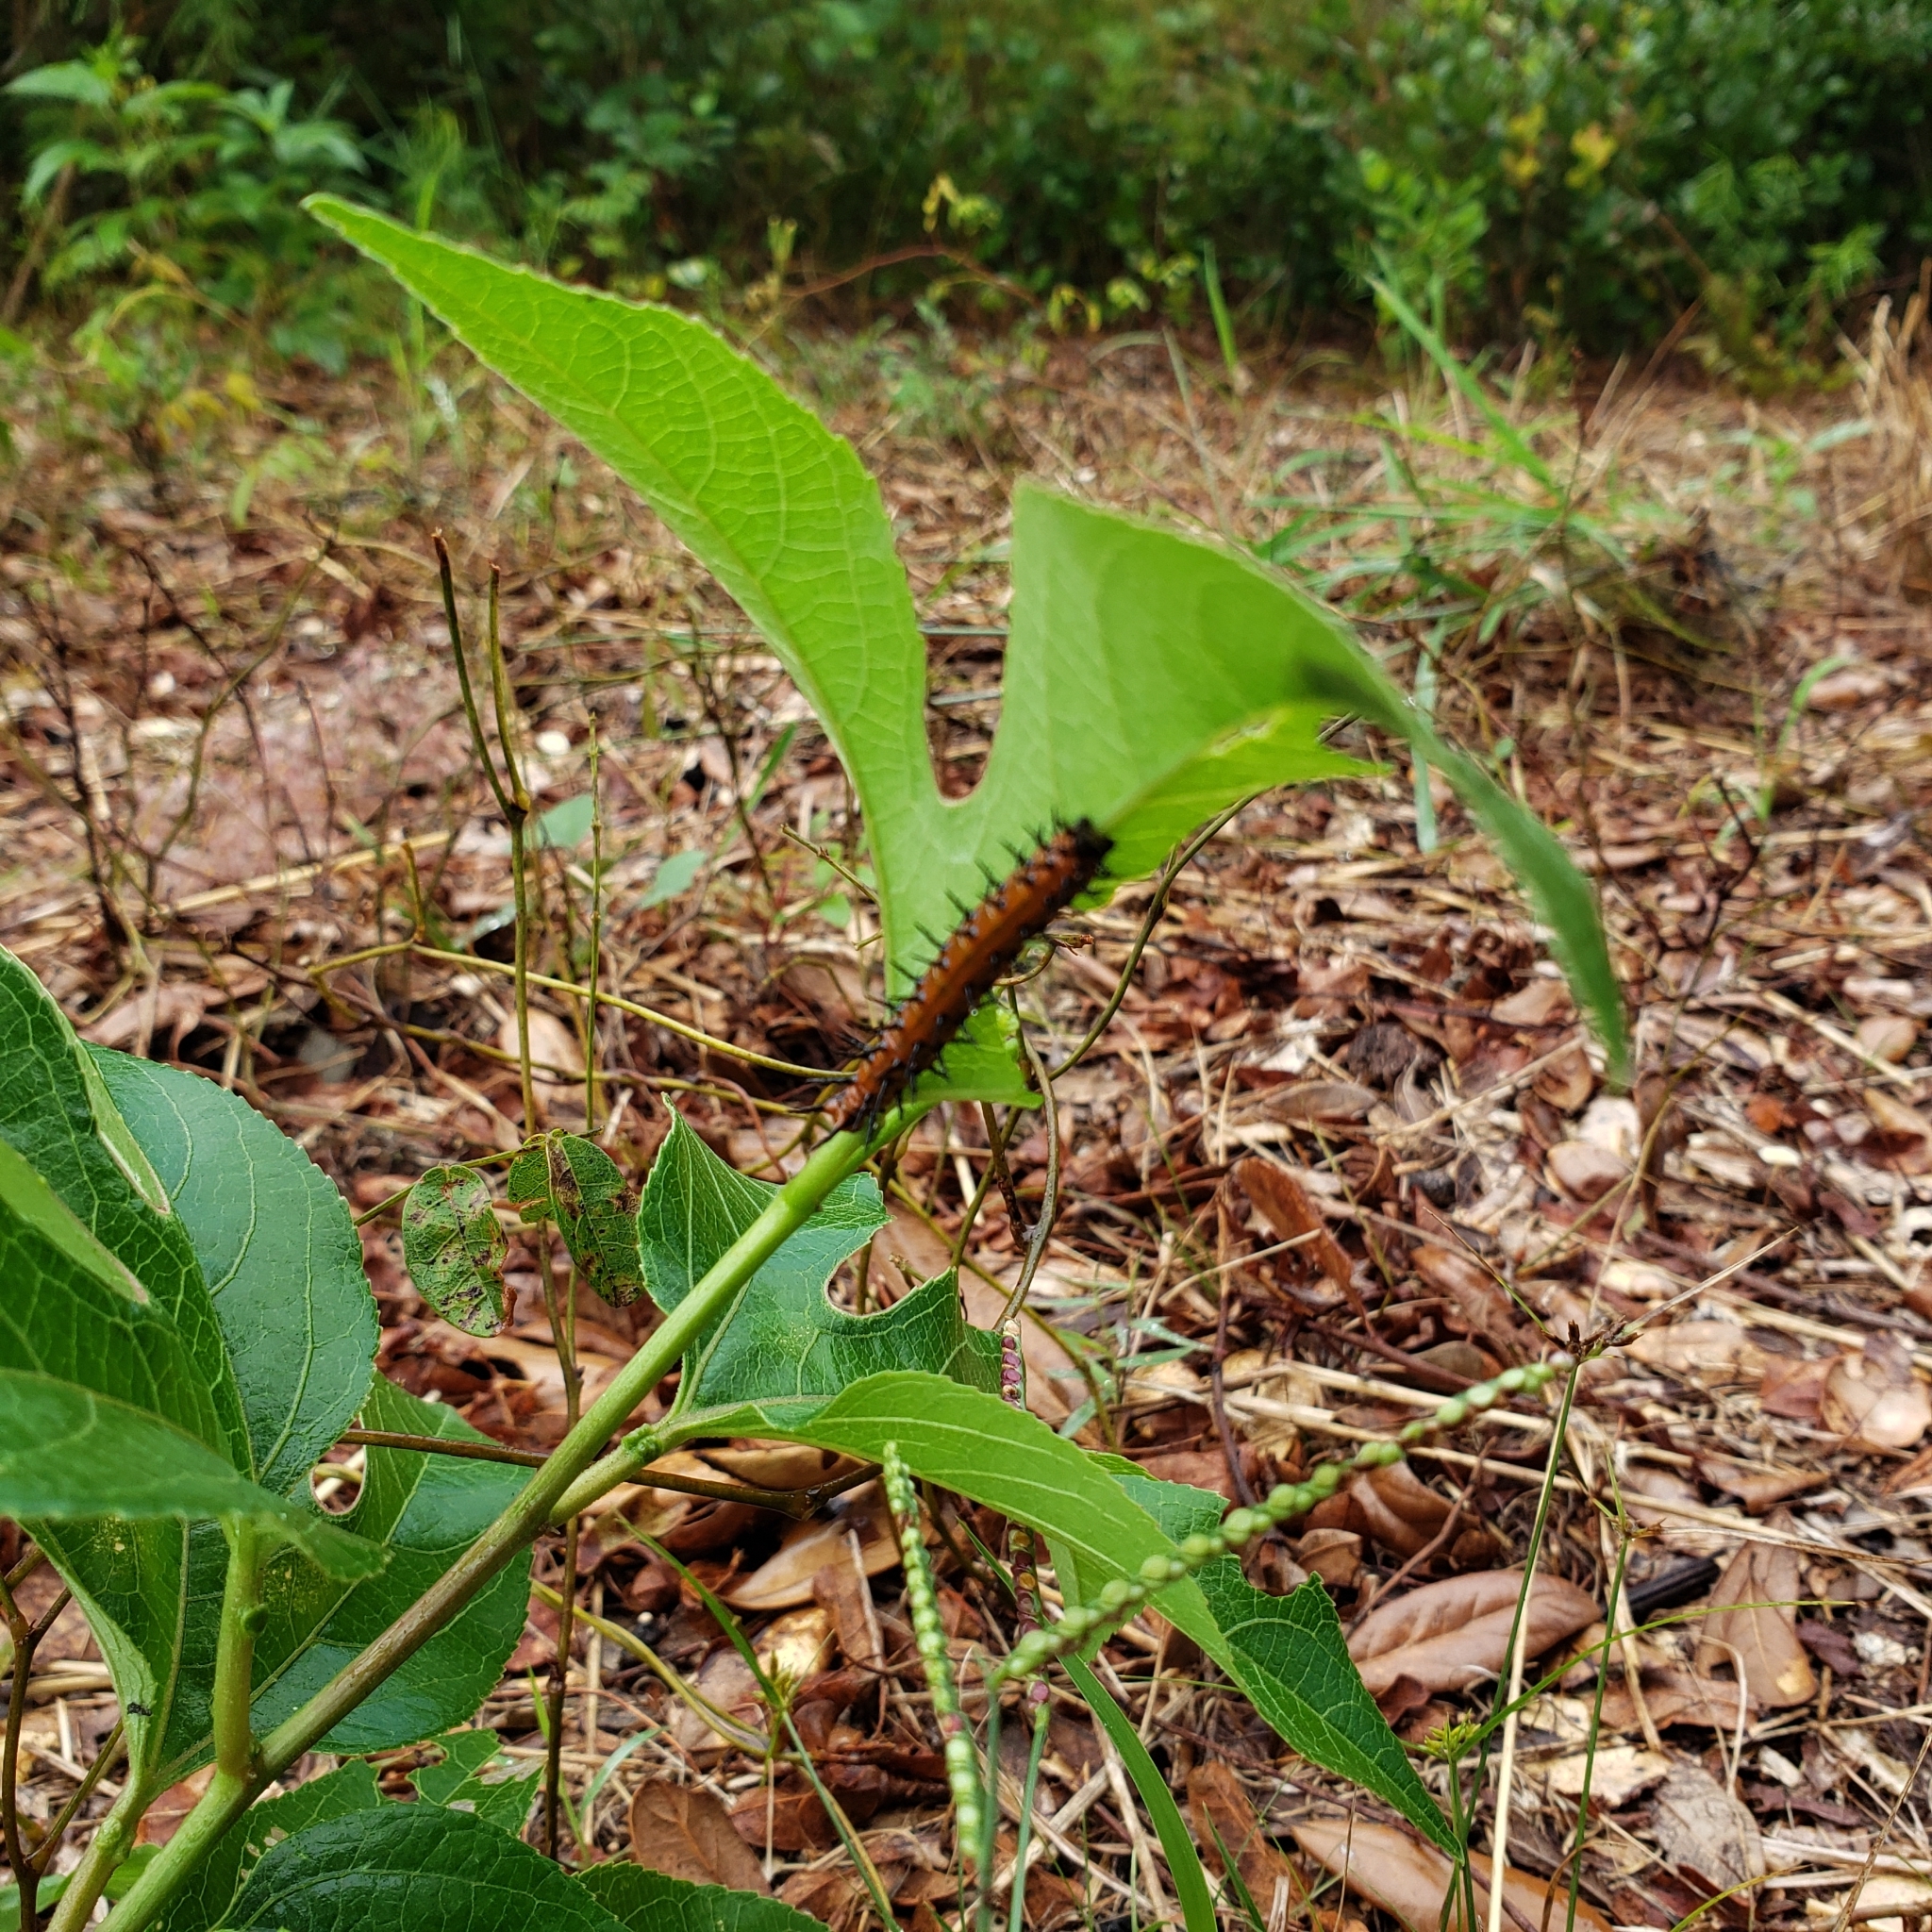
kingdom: Animalia
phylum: Arthropoda
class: Insecta
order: Lepidoptera
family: Nymphalidae
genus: Dione
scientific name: Dione vanillae
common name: Gulf fritillary
